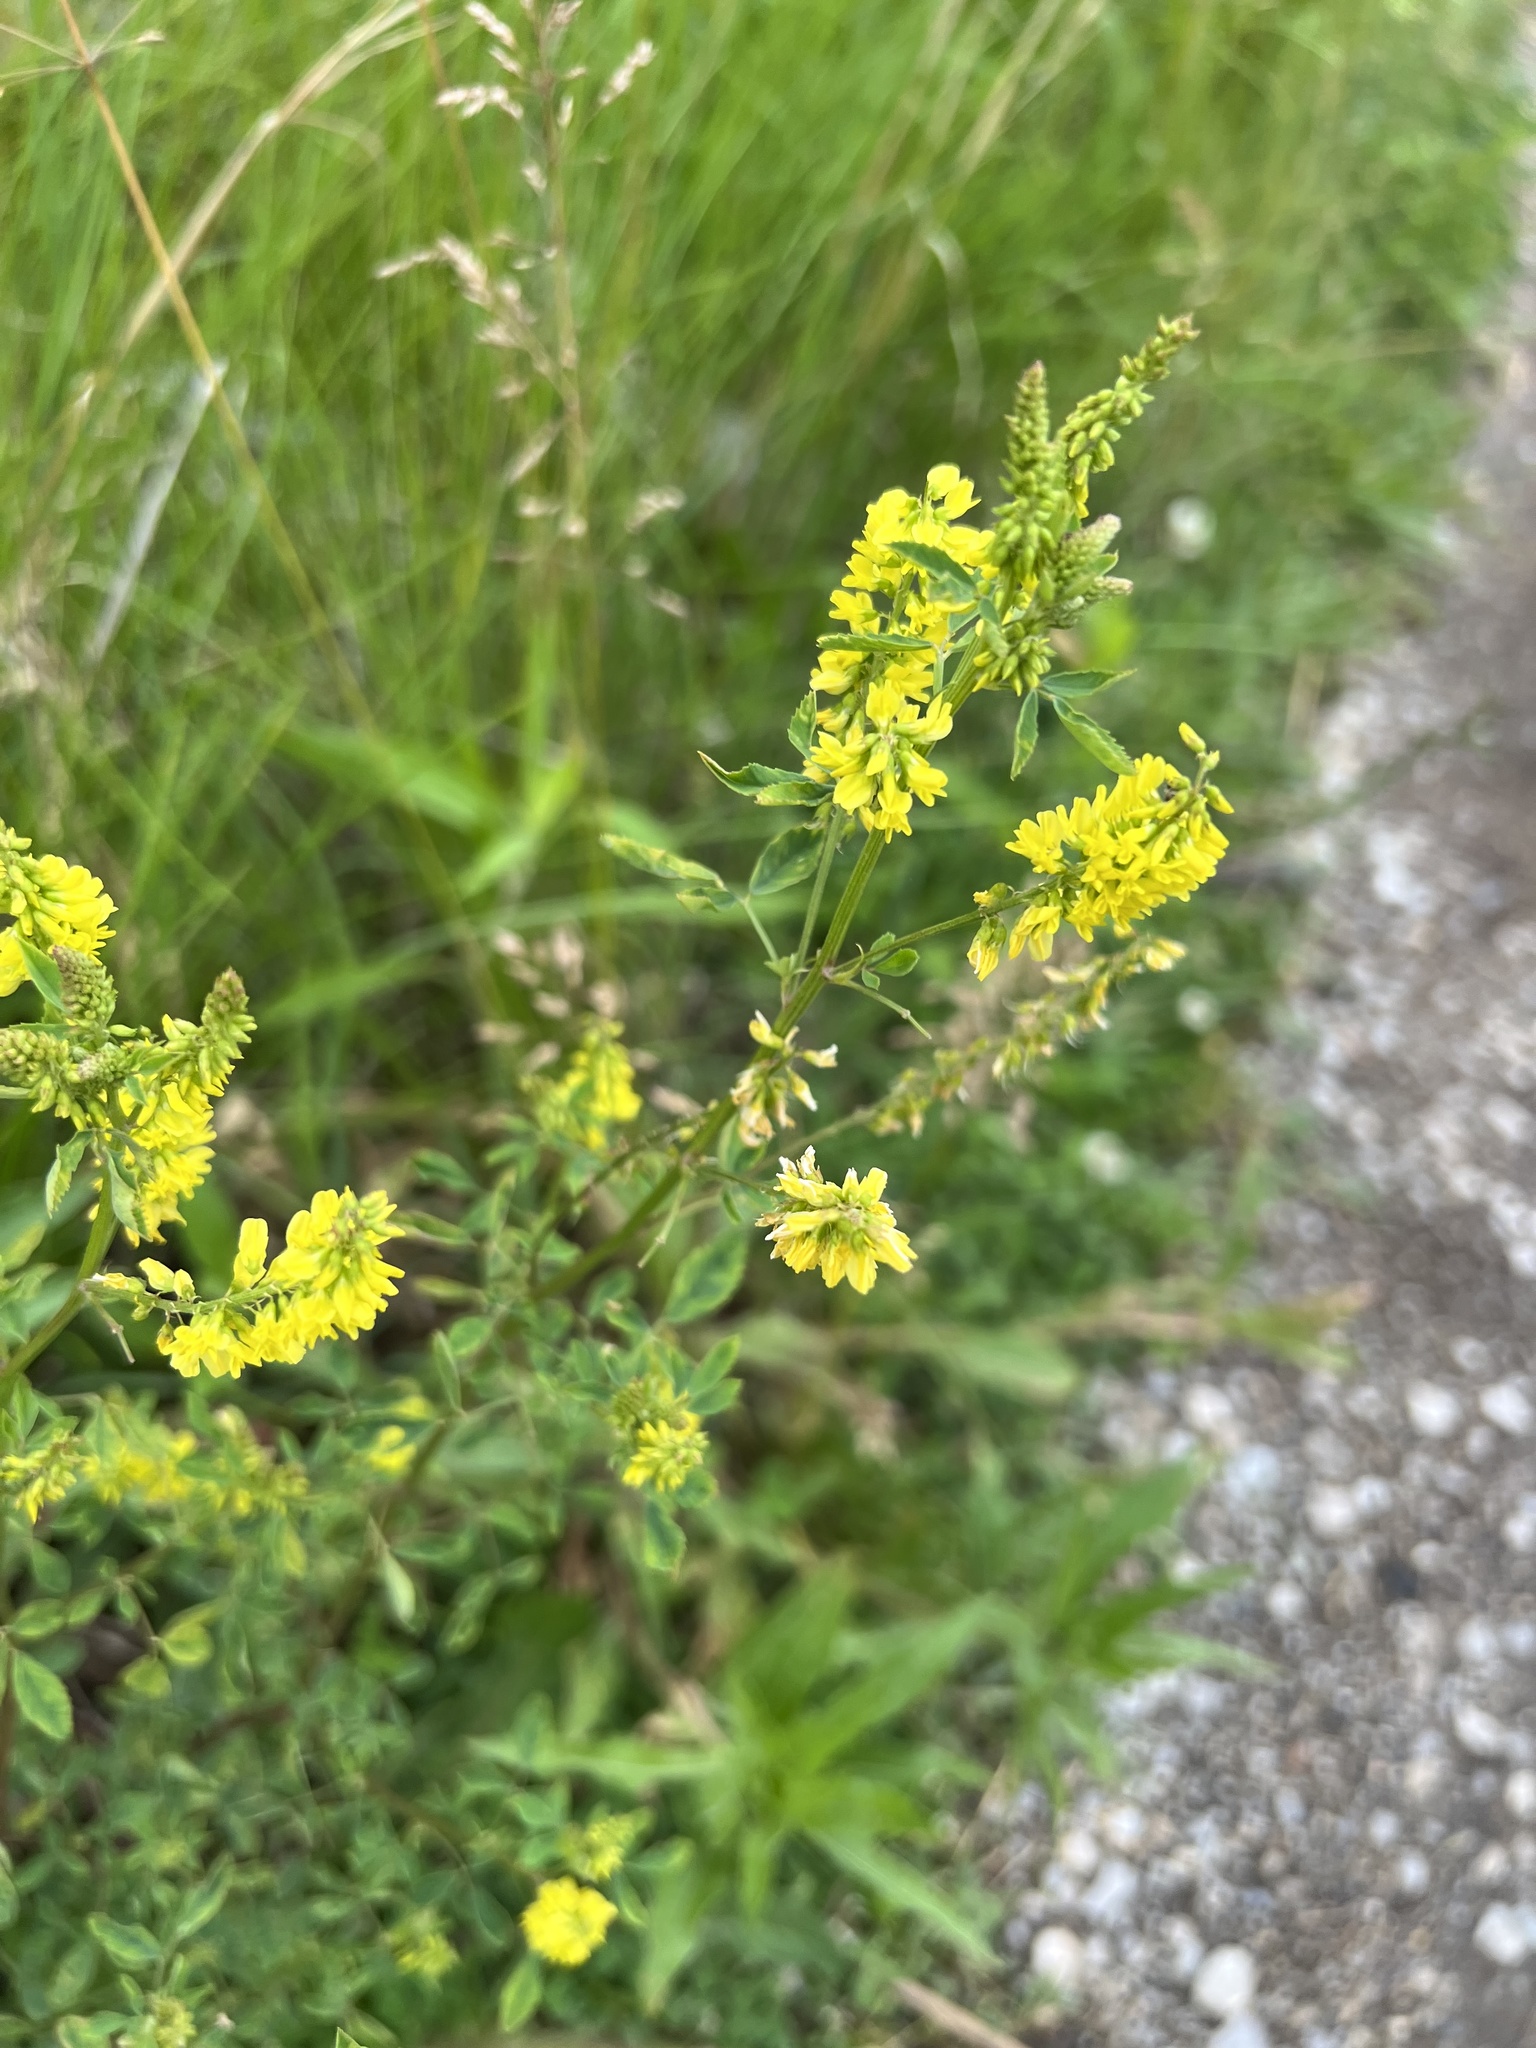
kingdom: Plantae
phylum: Tracheophyta
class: Magnoliopsida
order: Fabales
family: Fabaceae
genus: Melilotus
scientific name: Melilotus officinalis
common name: Sweetclover
